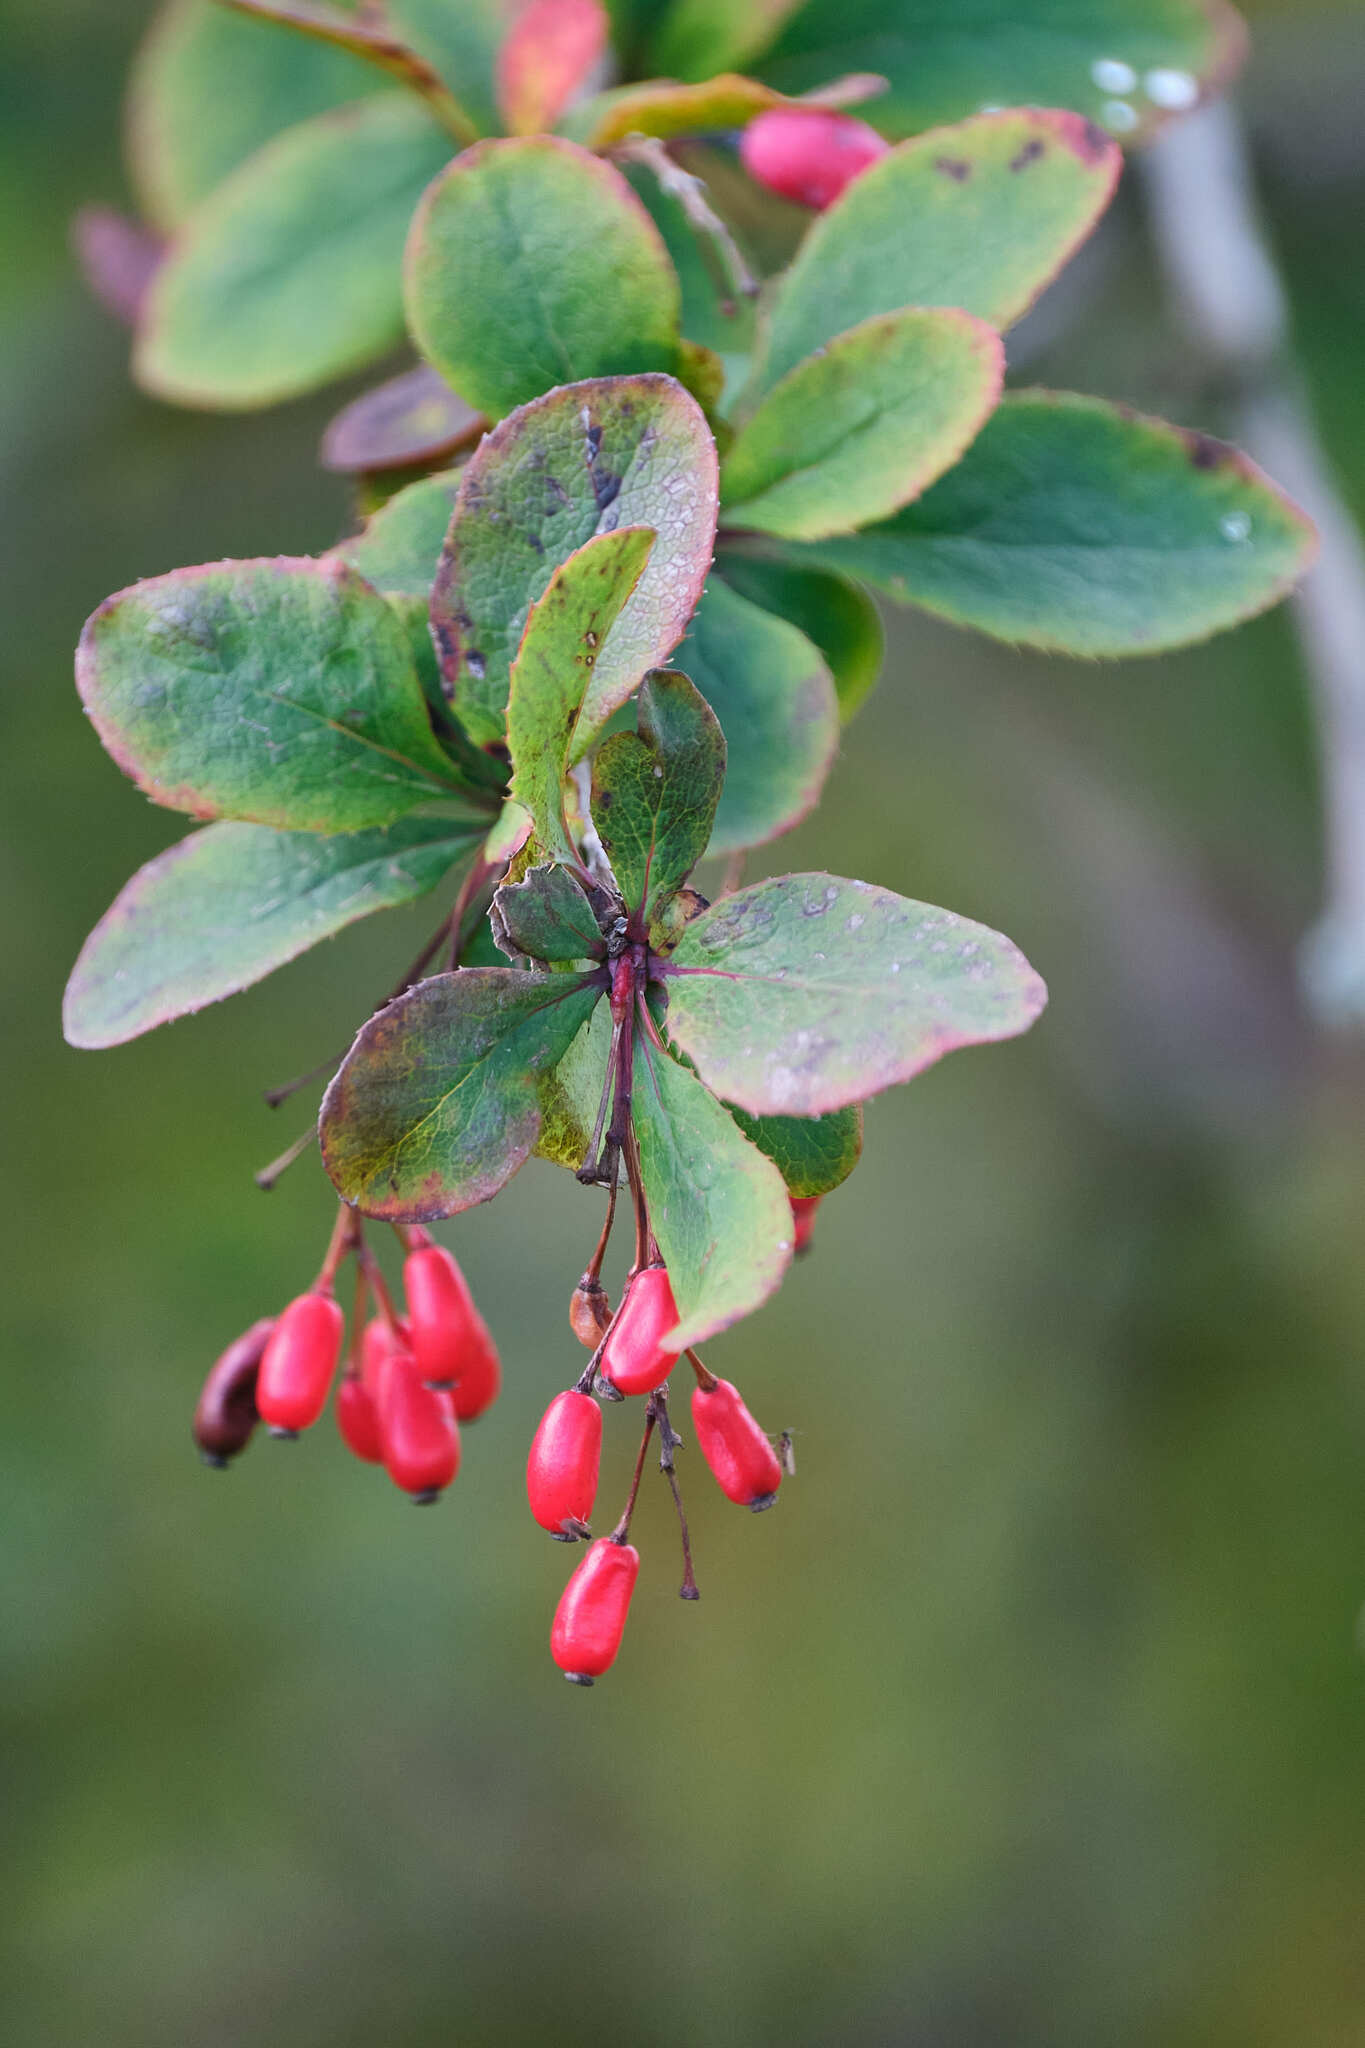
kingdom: Plantae
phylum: Tracheophyta
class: Magnoliopsida
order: Ranunculales
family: Berberidaceae
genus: Berberis
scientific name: Berberis vulgaris
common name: Barberry
